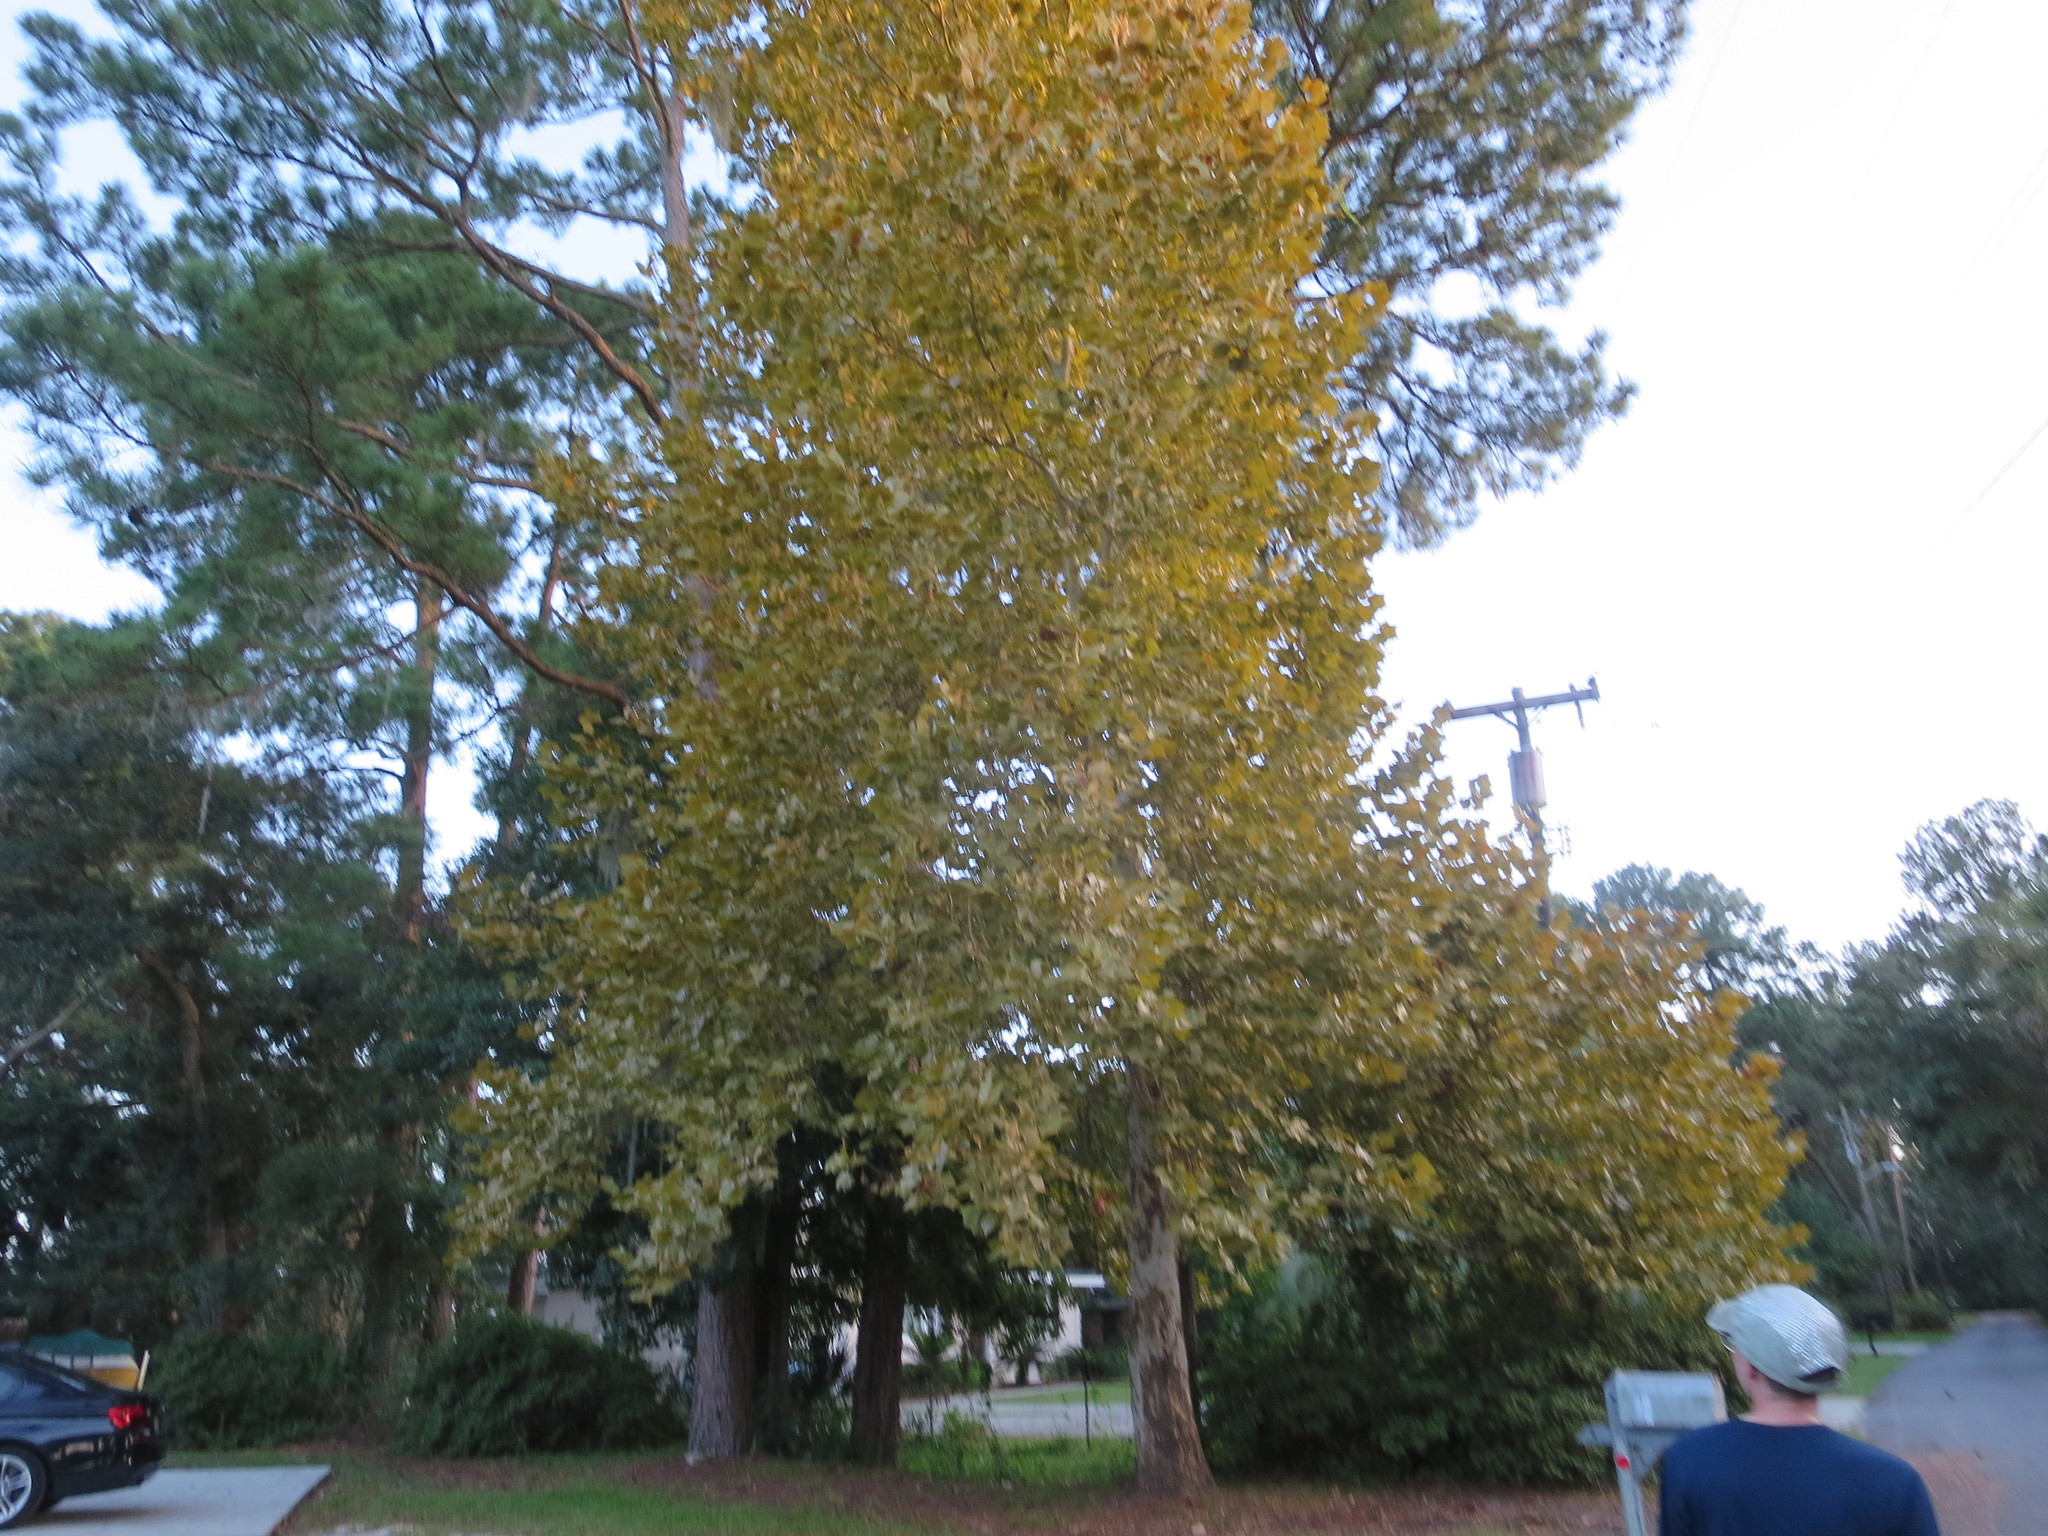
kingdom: Plantae
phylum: Tracheophyta
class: Magnoliopsida
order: Proteales
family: Platanaceae
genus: Platanus
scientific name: Platanus occidentalis
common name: American sycamore
